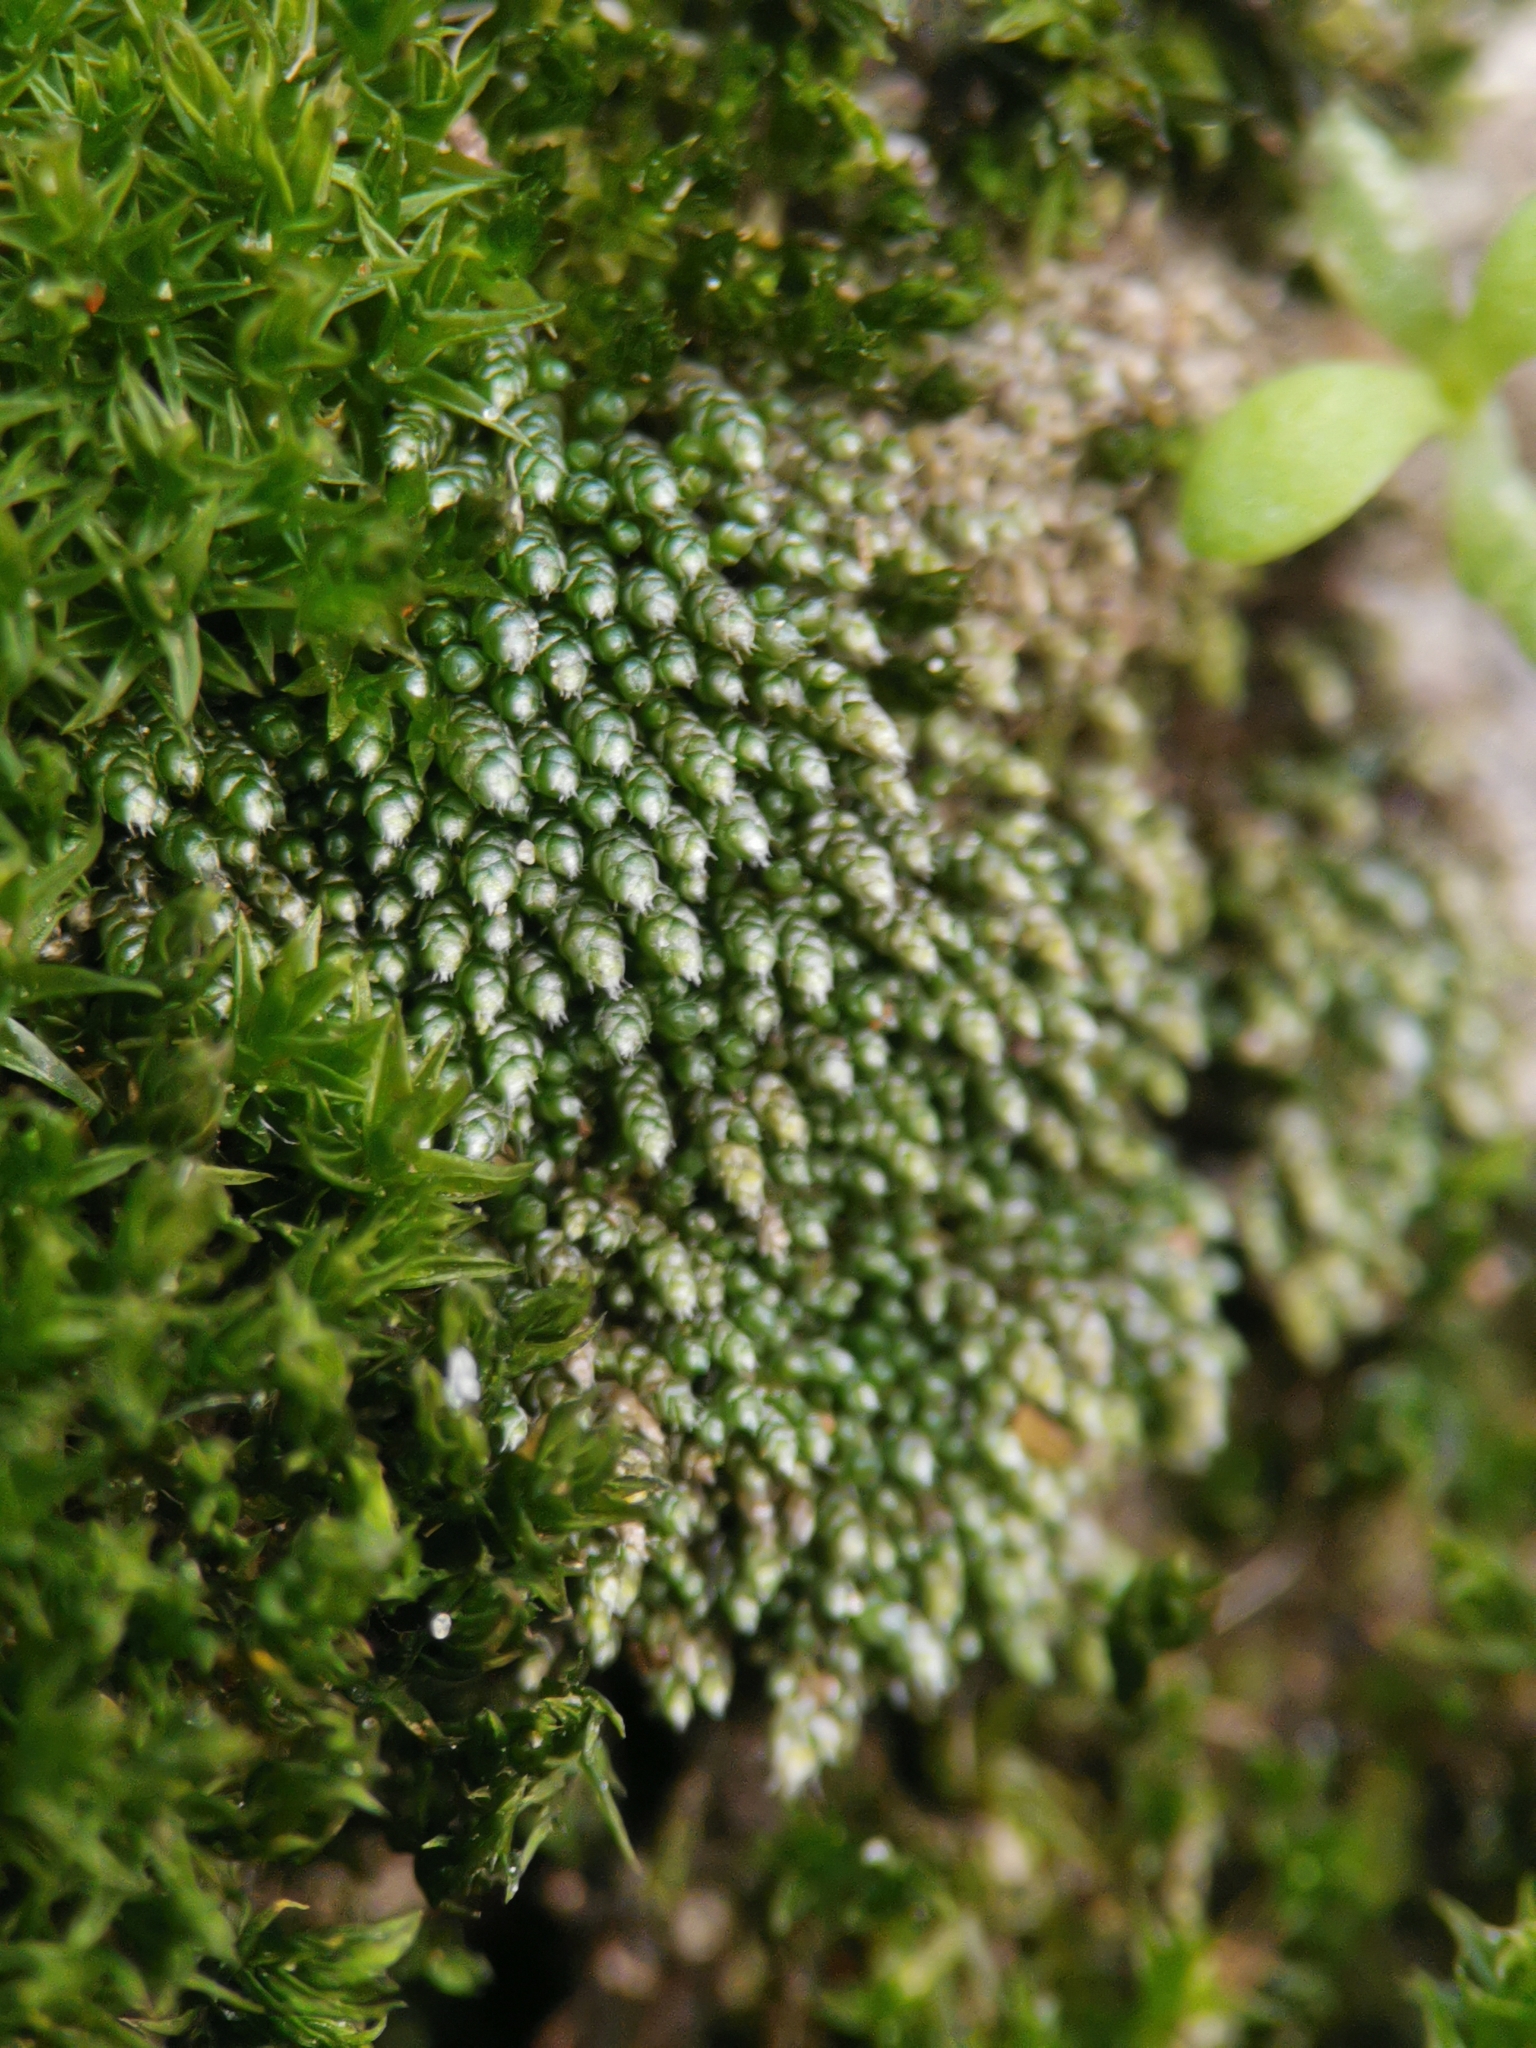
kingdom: Plantae
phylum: Bryophyta
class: Bryopsida
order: Bryales
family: Bryaceae
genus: Bryum
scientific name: Bryum argenteum
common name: Silver-moss
